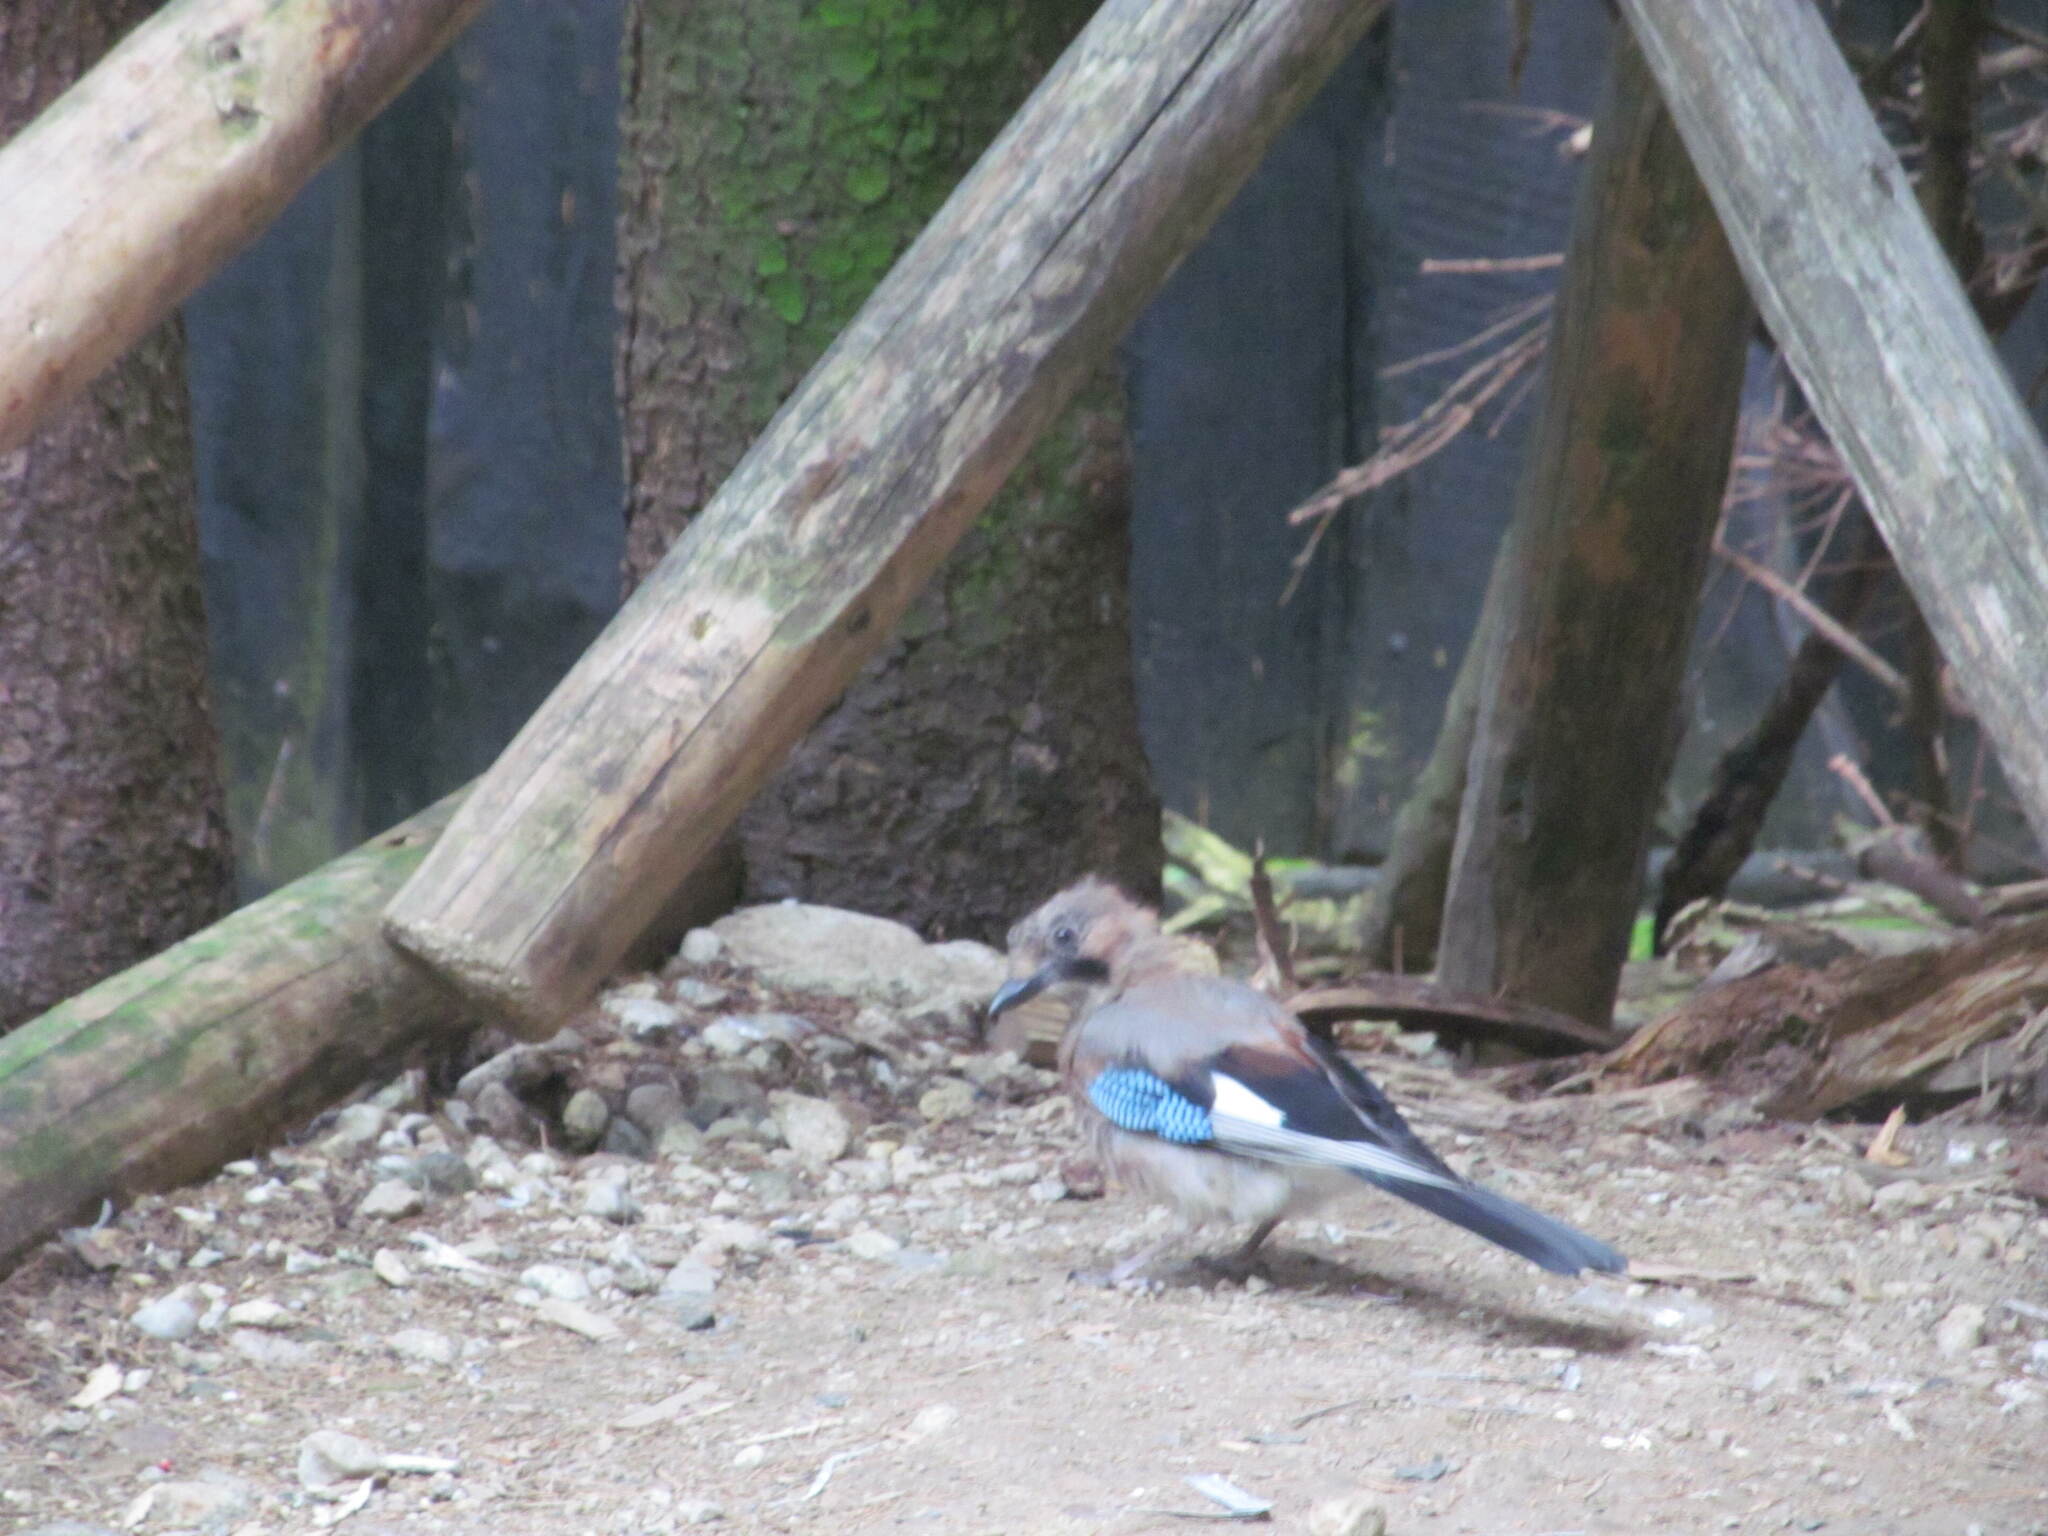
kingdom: Animalia
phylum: Chordata
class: Aves
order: Passeriformes
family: Corvidae
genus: Garrulus
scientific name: Garrulus glandarius
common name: Eurasian jay
